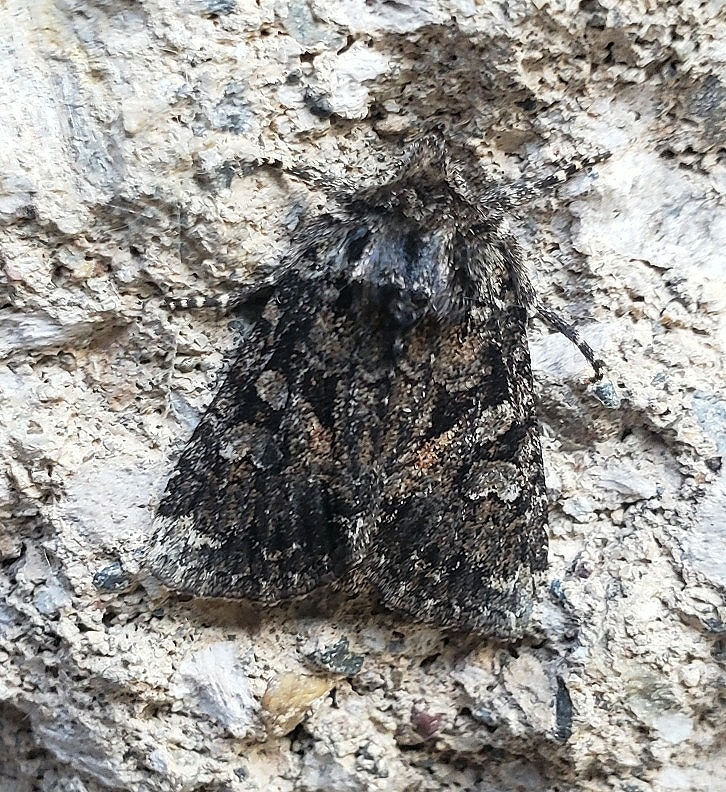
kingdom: Animalia
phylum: Arthropoda
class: Insecta
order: Lepidoptera
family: Noctuidae
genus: Orthodes
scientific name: Orthodes detracta
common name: Disparaged arches moth
